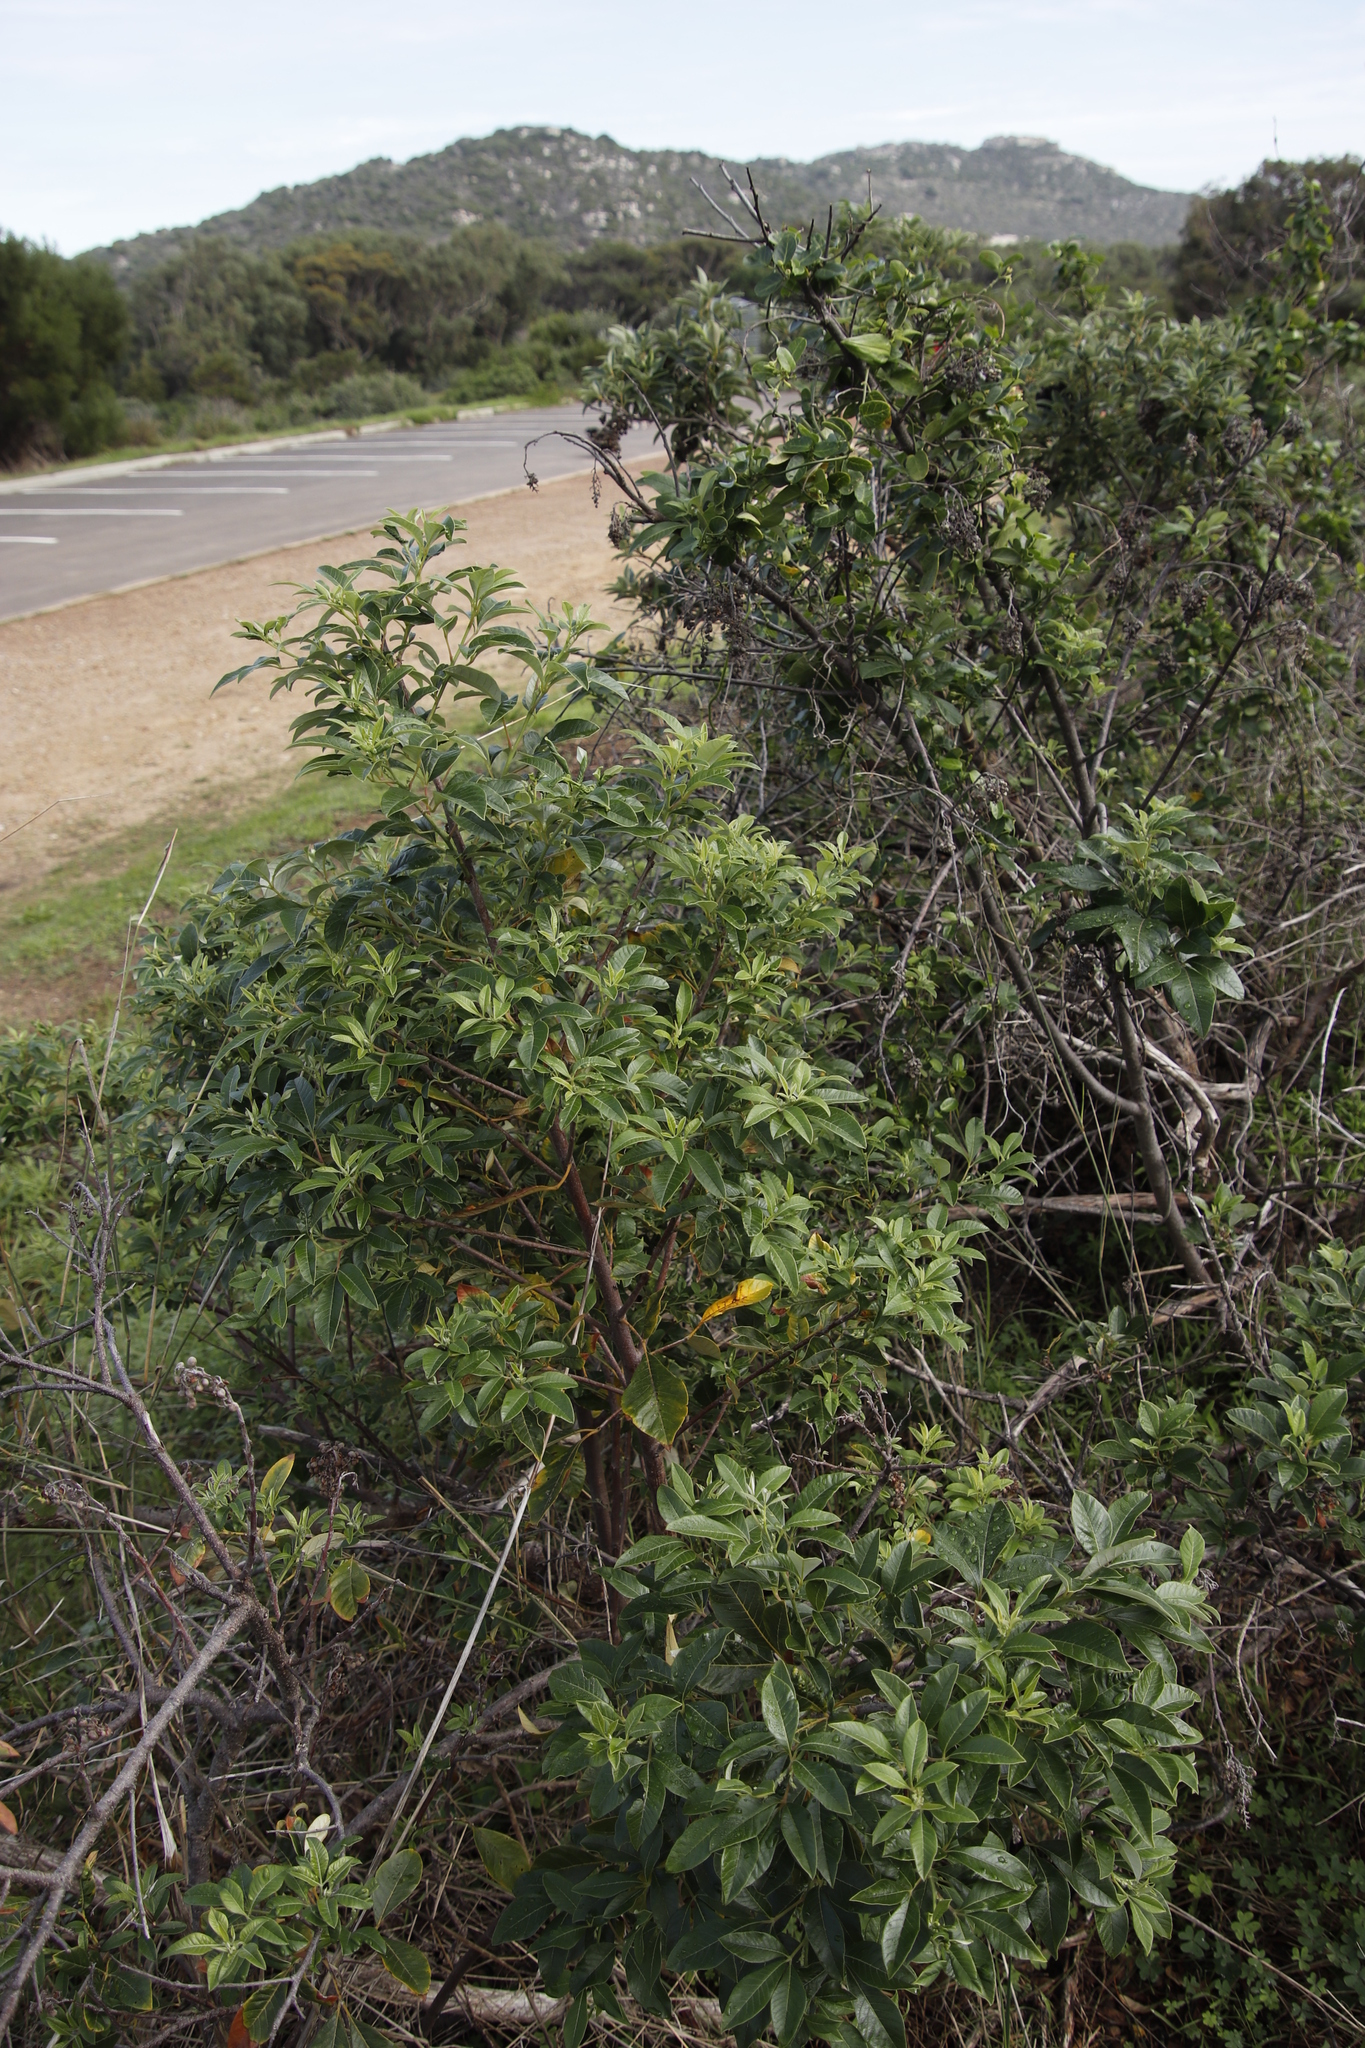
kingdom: Plantae
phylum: Tracheophyta
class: Magnoliopsida
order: Sapindales
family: Anacardiaceae
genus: Searsia
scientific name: Searsia tomentosa
